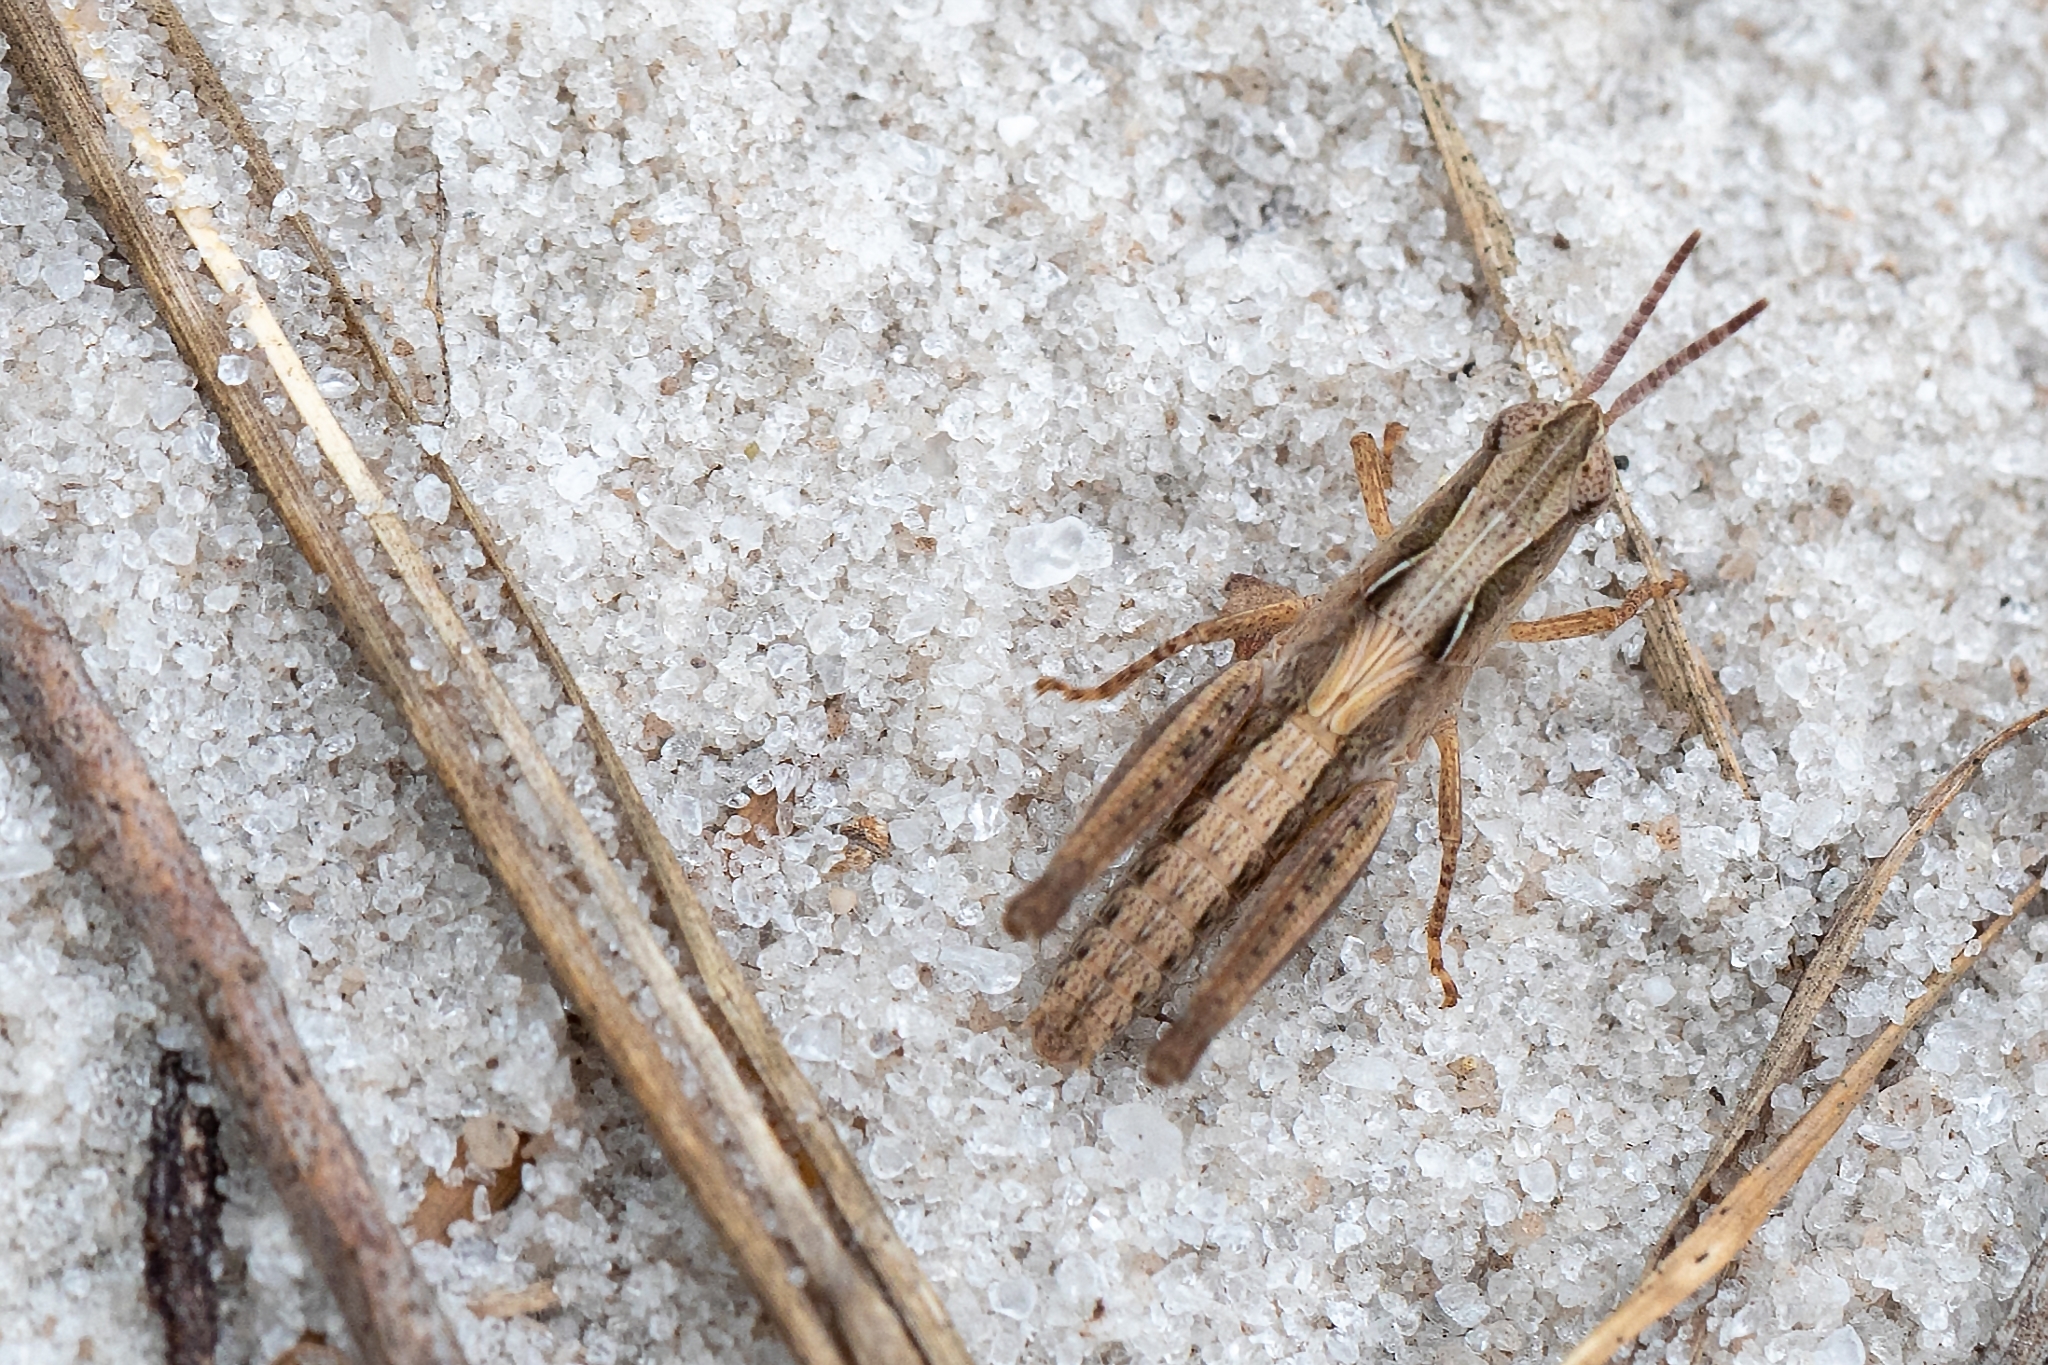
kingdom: Animalia
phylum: Arthropoda
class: Insecta
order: Orthoptera
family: Acrididae
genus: Orphulella
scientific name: Orphulella pelidna
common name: Spotted-wing grasshopper
